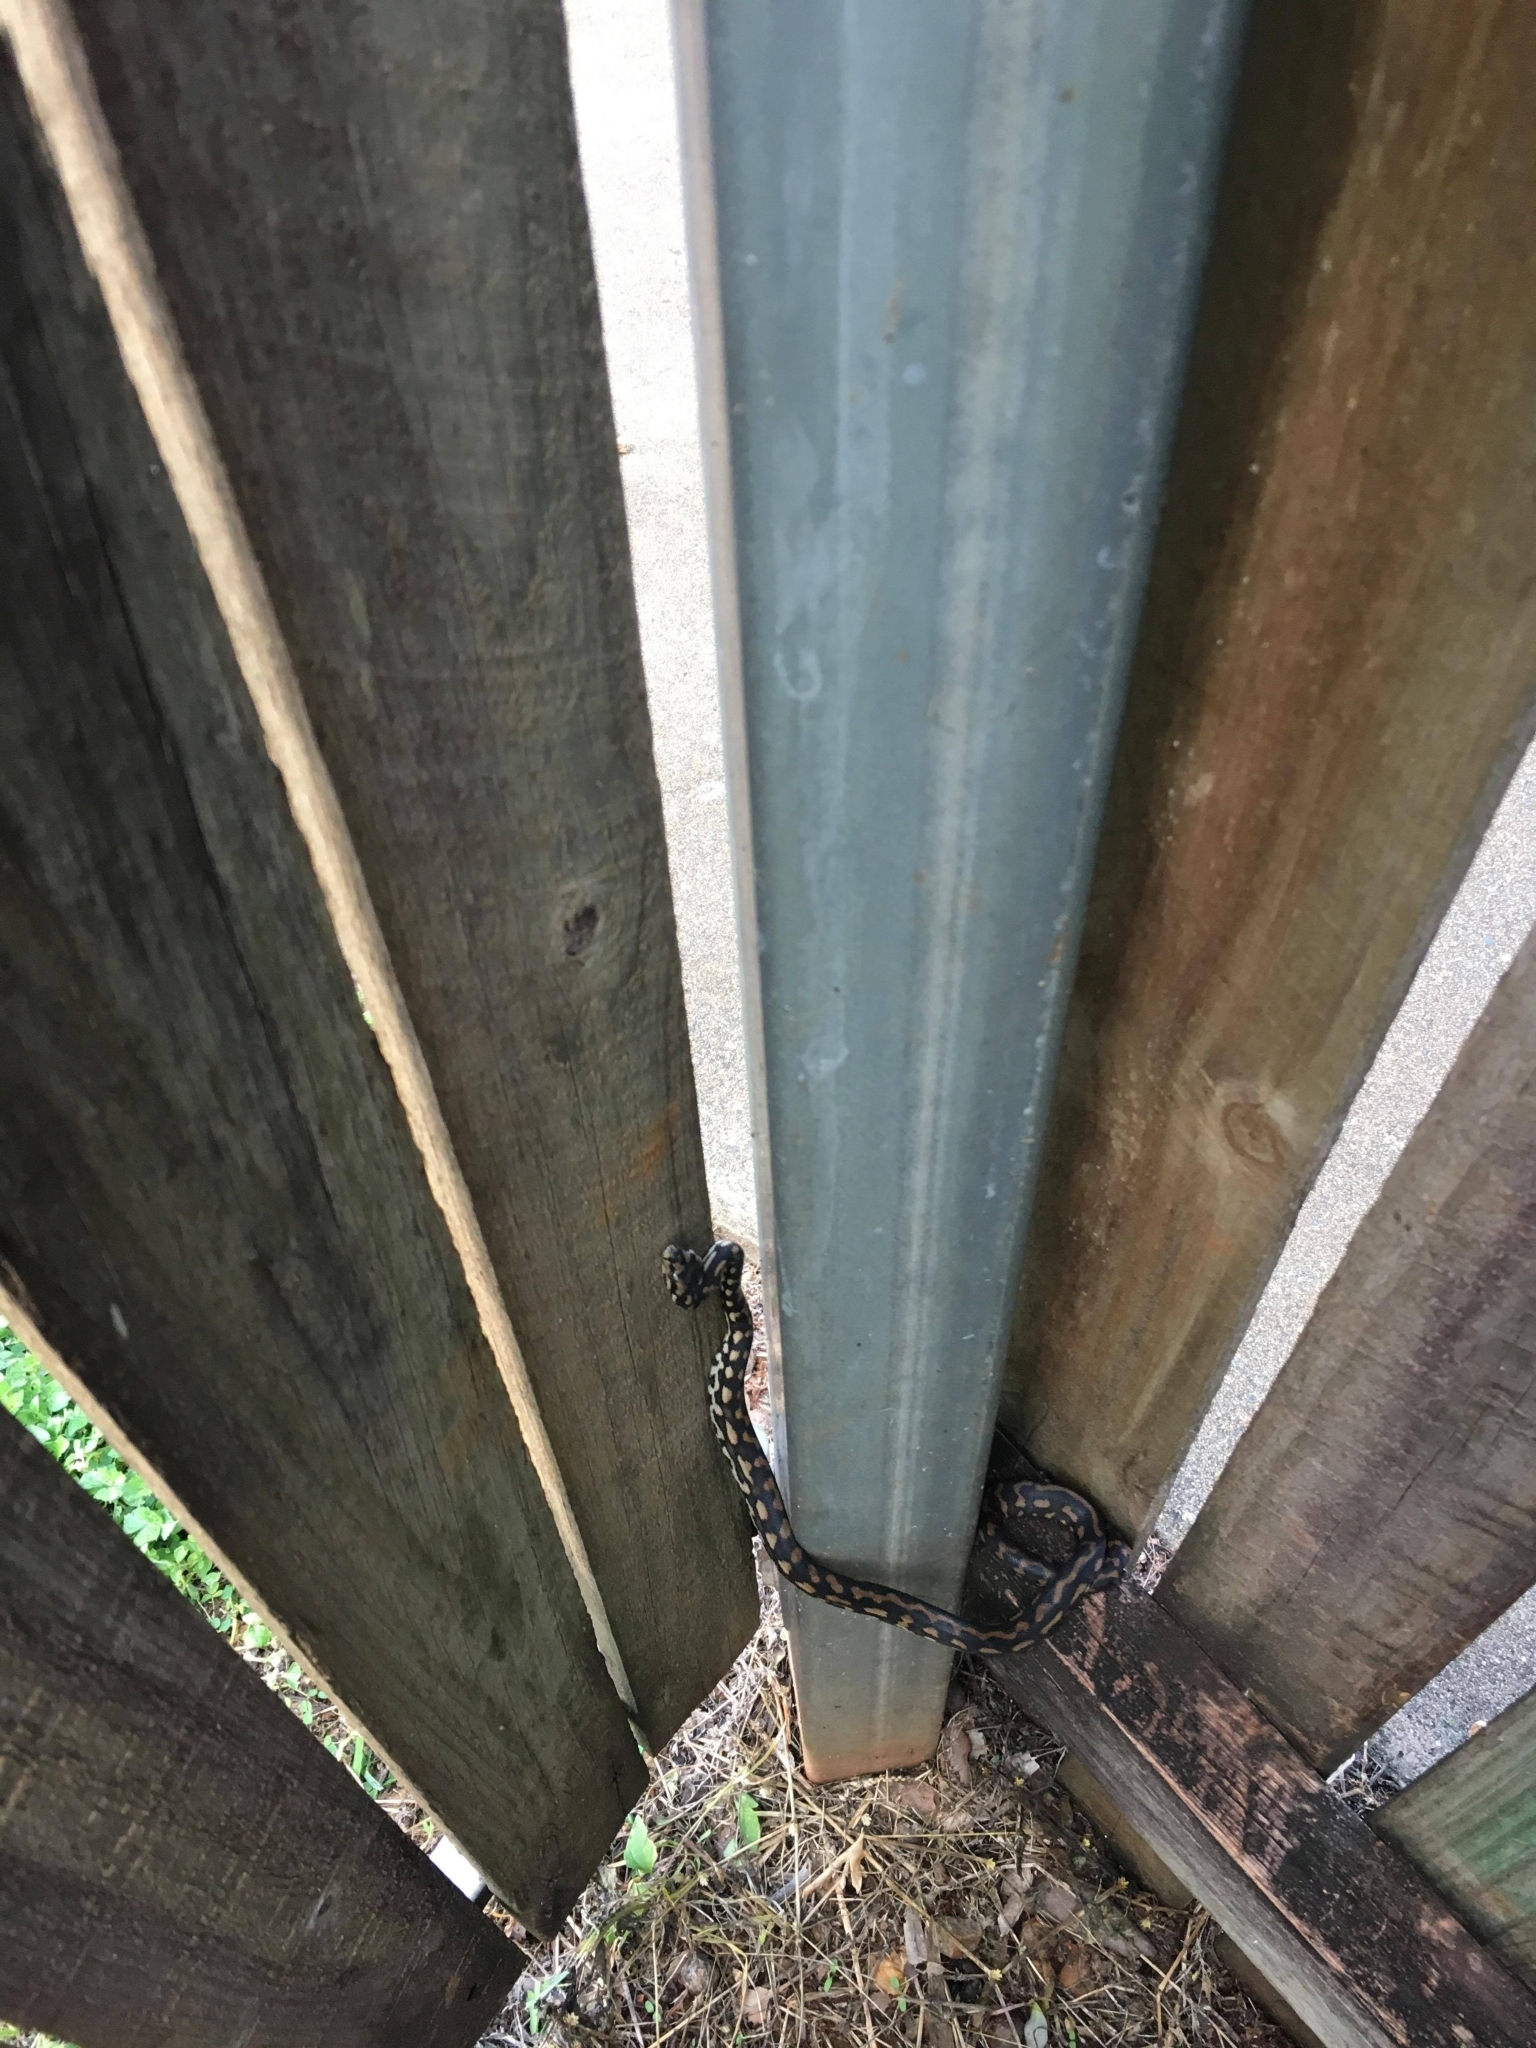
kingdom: Animalia
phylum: Chordata
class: Squamata
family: Pythonidae
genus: Morelia
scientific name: Morelia spilota
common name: Carpet python
